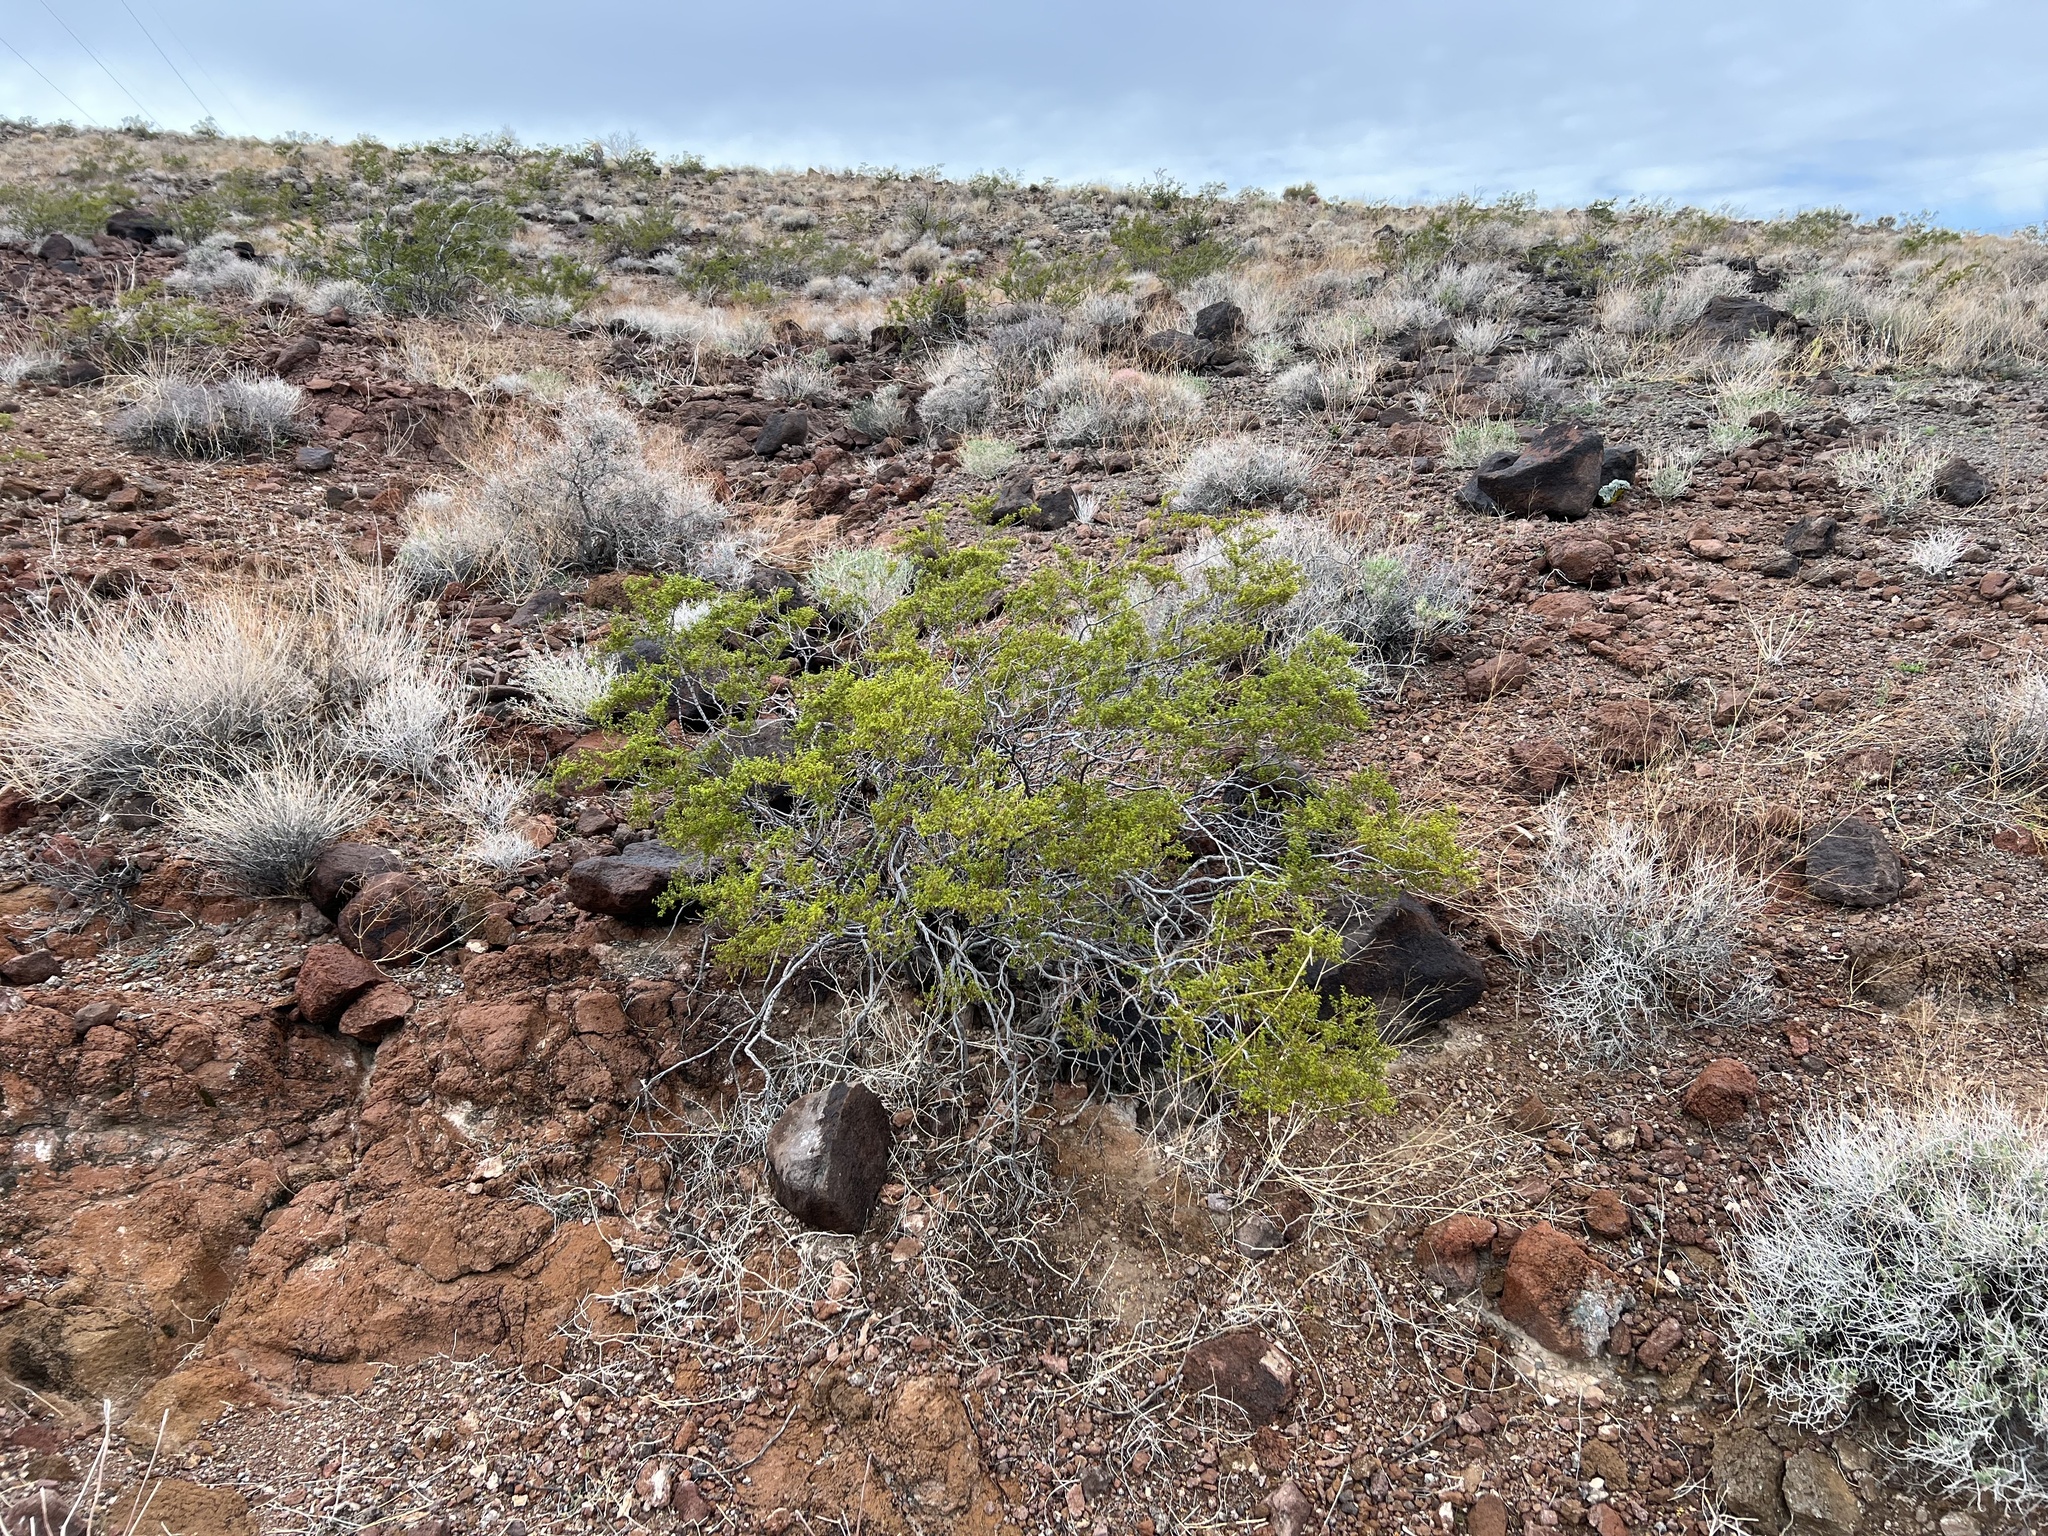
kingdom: Plantae
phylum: Tracheophyta
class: Magnoliopsida
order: Zygophyllales
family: Zygophyllaceae
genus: Larrea
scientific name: Larrea tridentata
